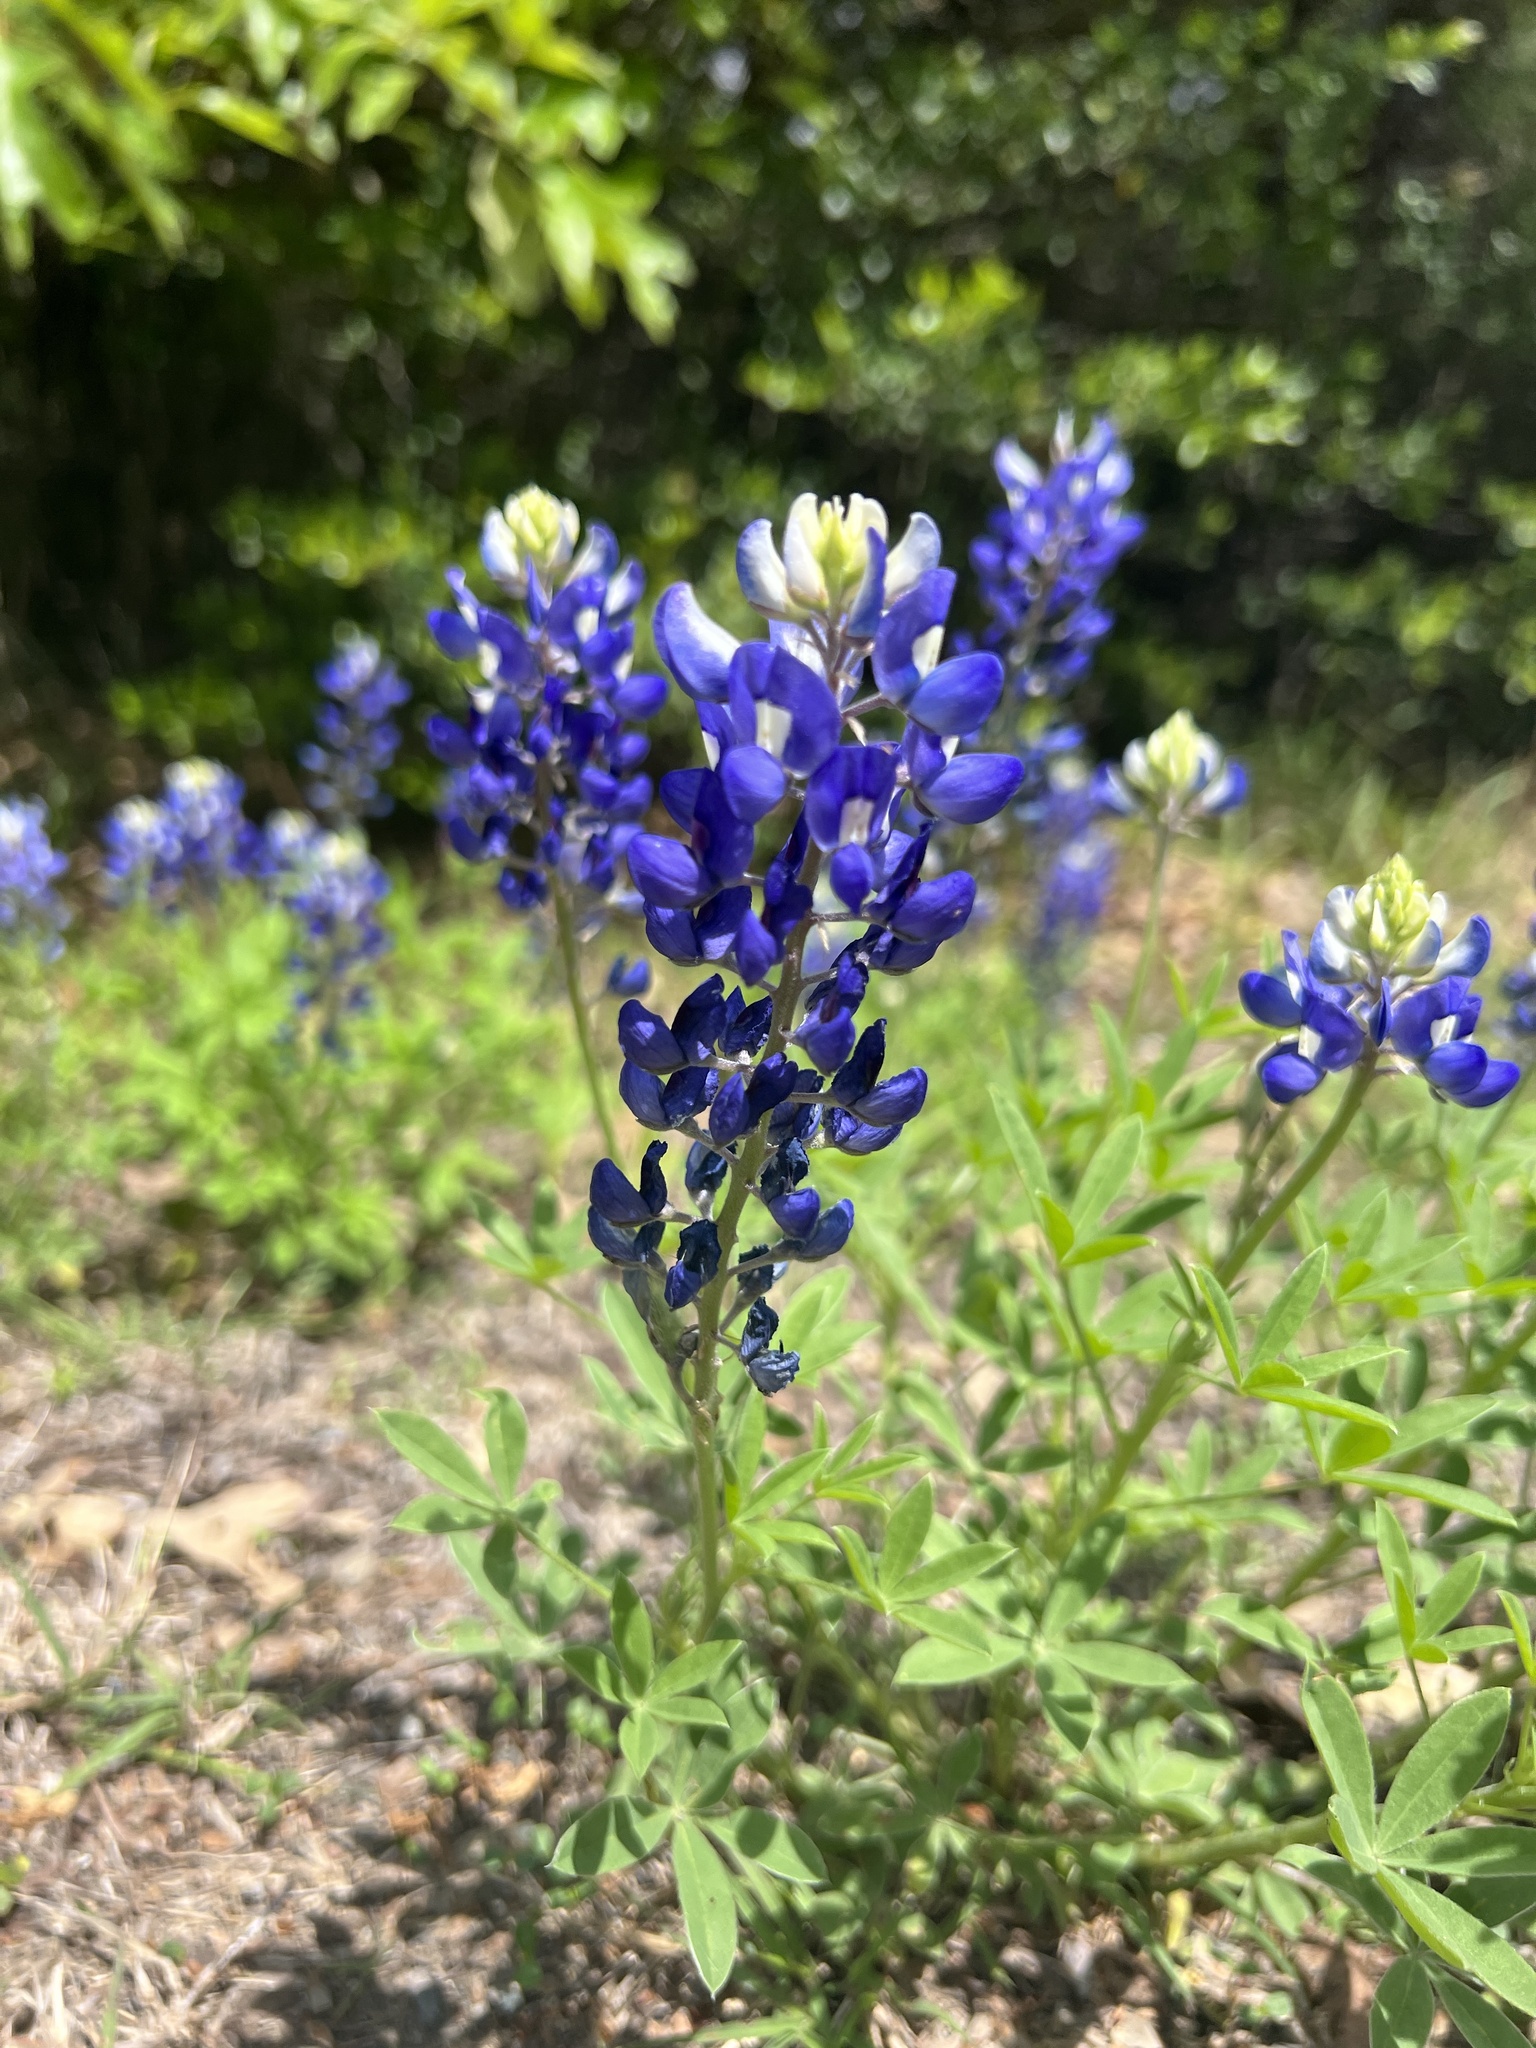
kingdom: Plantae
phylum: Tracheophyta
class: Magnoliopsida
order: Fabales
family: Fabaceae
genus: Lupinus
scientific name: Lupinus texensis
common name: Texas bluebonnet
